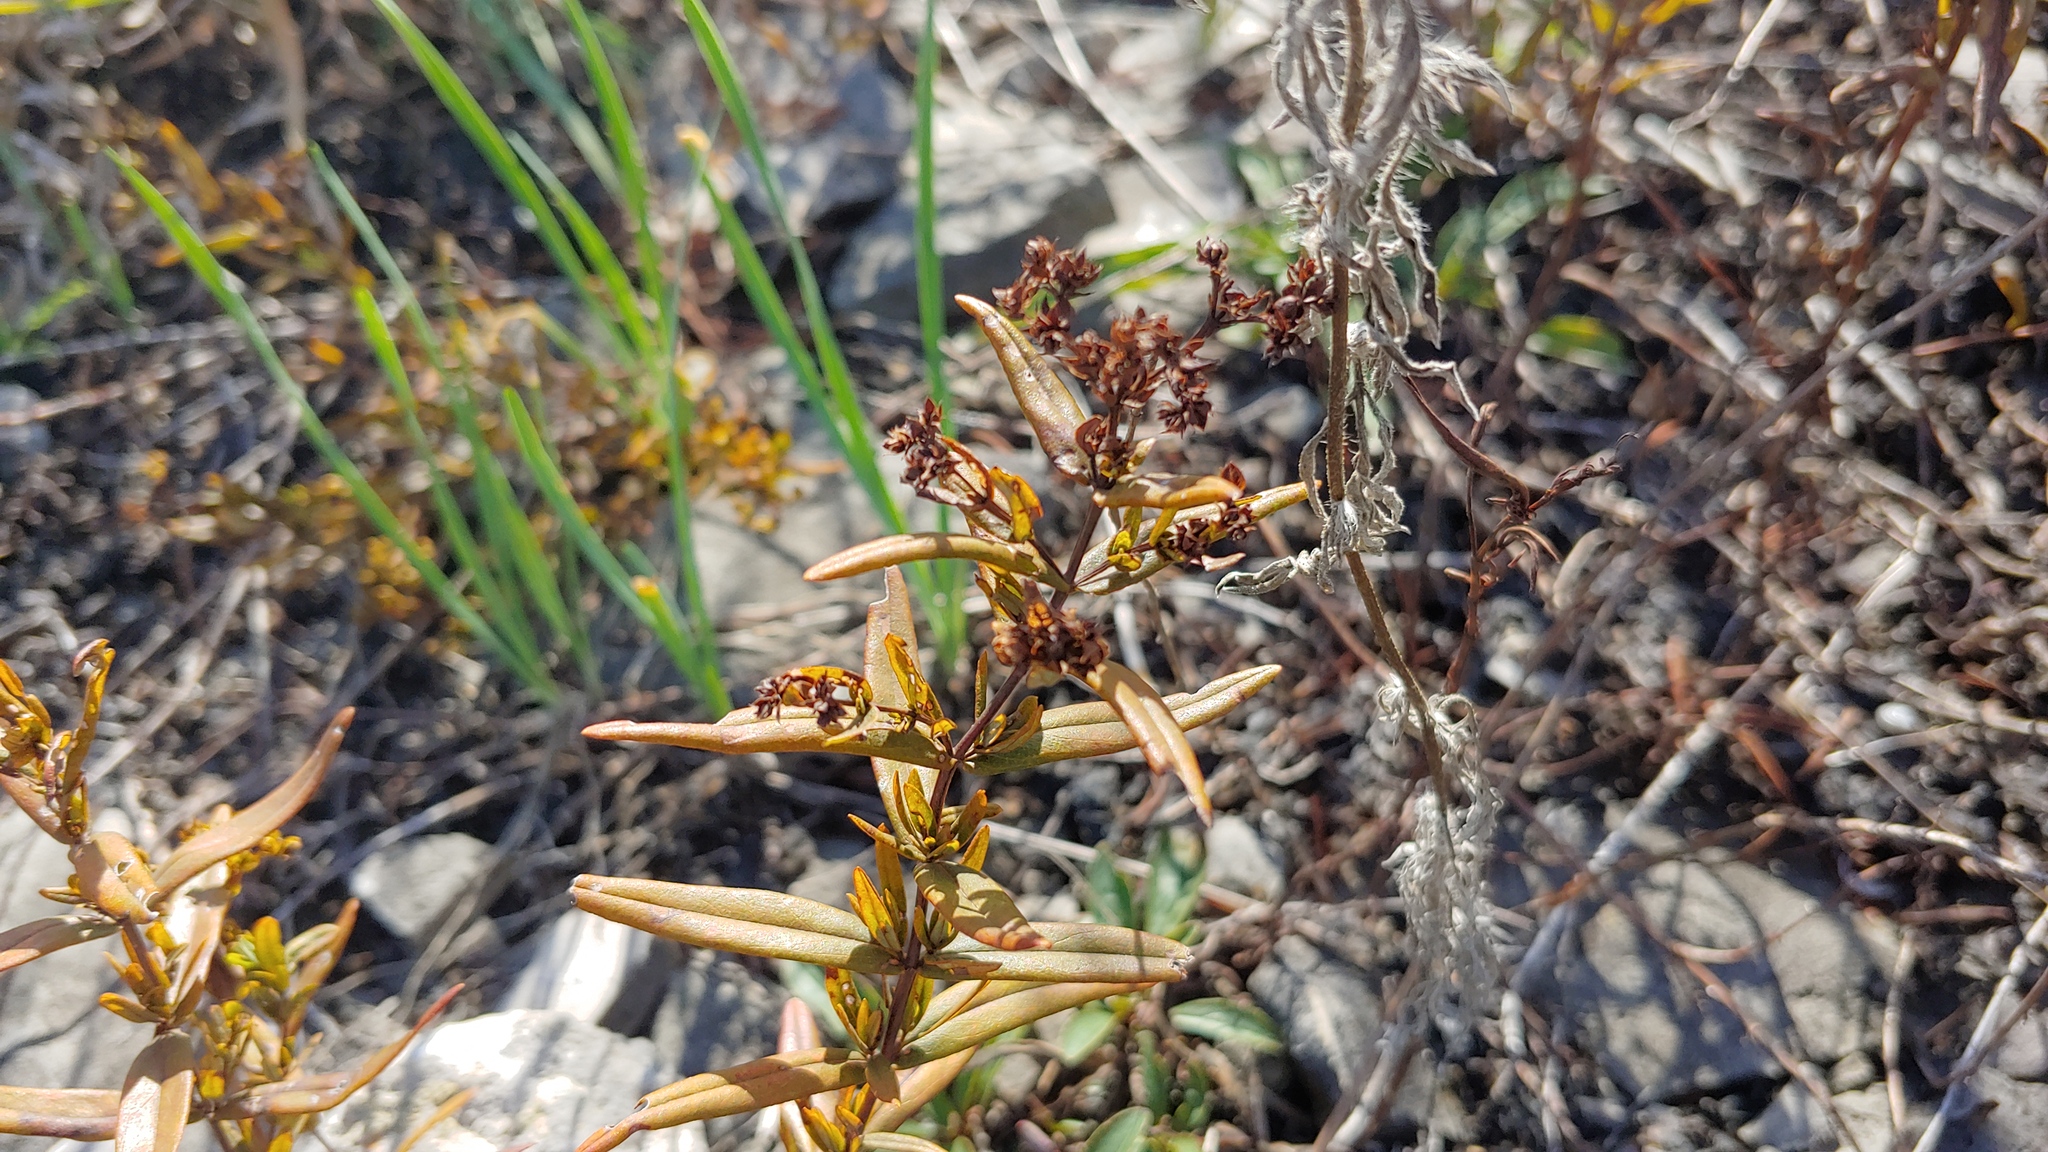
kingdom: Plantae
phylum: Tracheophyta
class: Magnoliopsida
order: Malpighiales
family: Hypericaceae
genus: Hypericum
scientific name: Hypericum sphaerocarpum
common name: Round-fruited st. john's-wort
